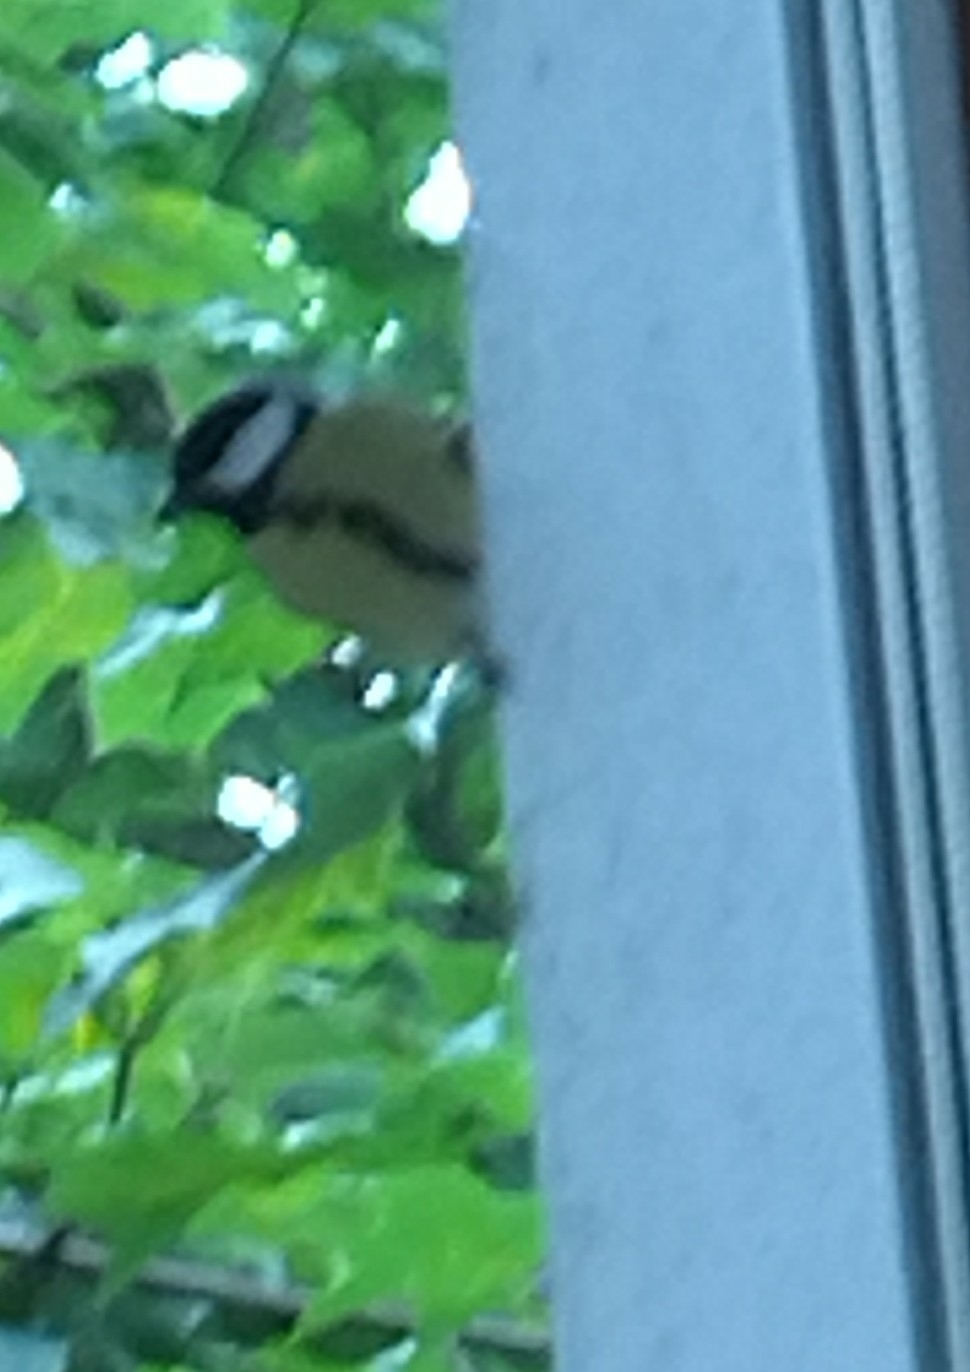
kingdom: Animalia
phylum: Chordata
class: Aves
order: Passeriformes
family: Paridae
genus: Parus
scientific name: Parus major
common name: Great tit
